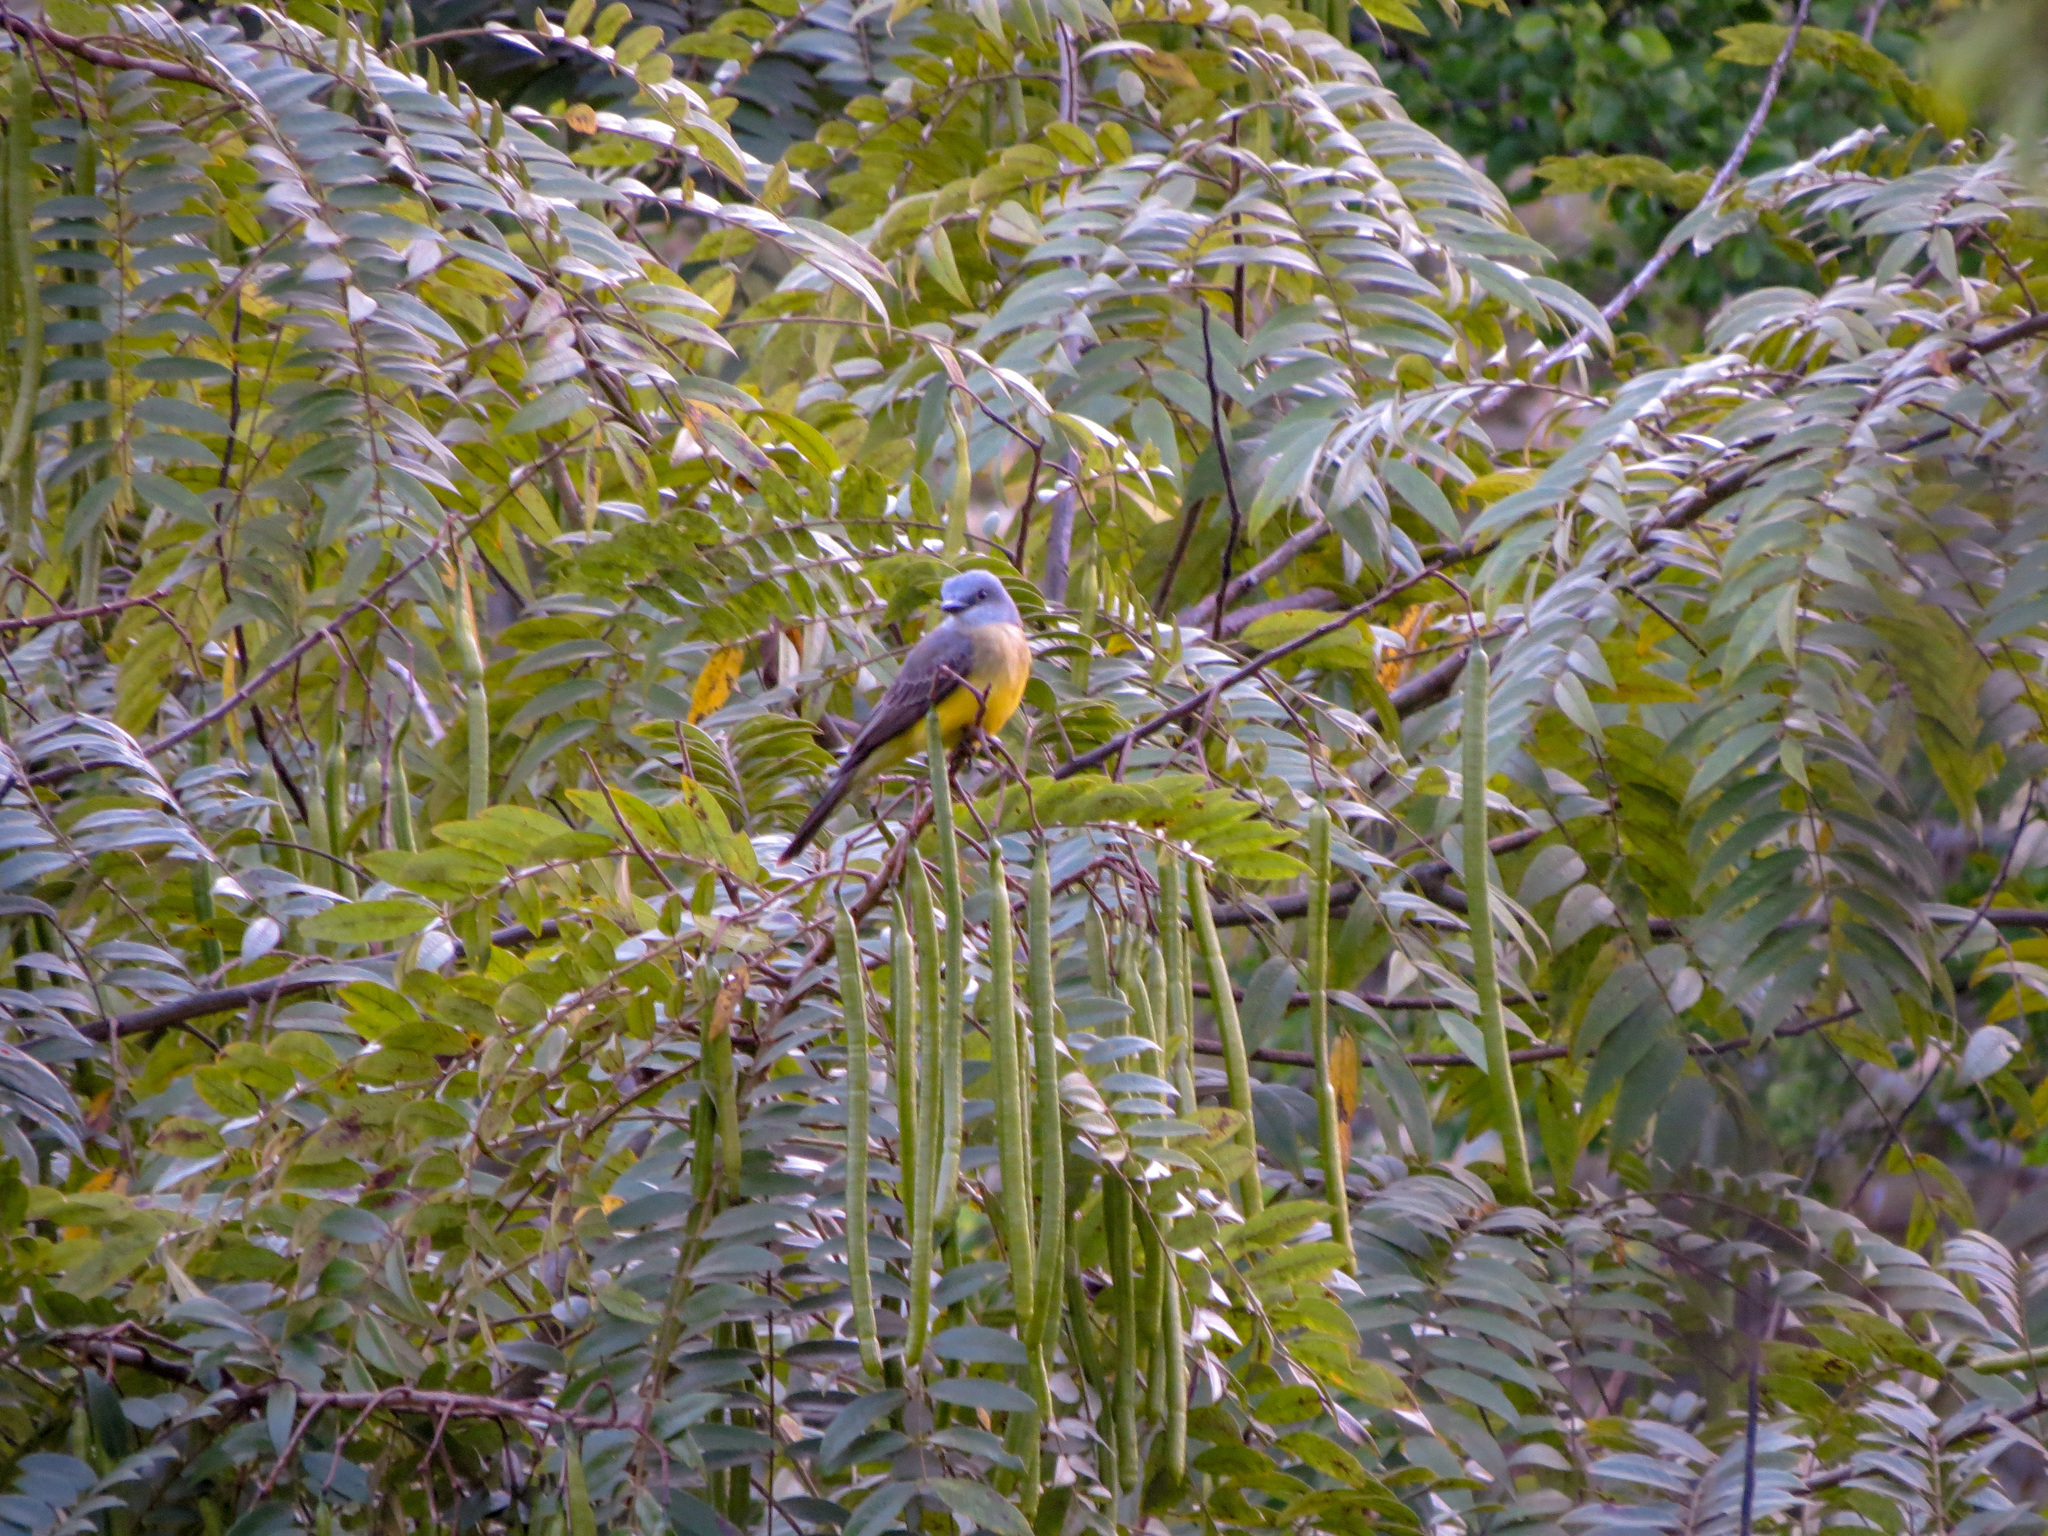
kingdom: Animalia
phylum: Chordata
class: Aves
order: Passeriformes
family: Tyrannidae
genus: Tyrannus
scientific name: Tyrannus melancholicus
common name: Tropical kingbird
